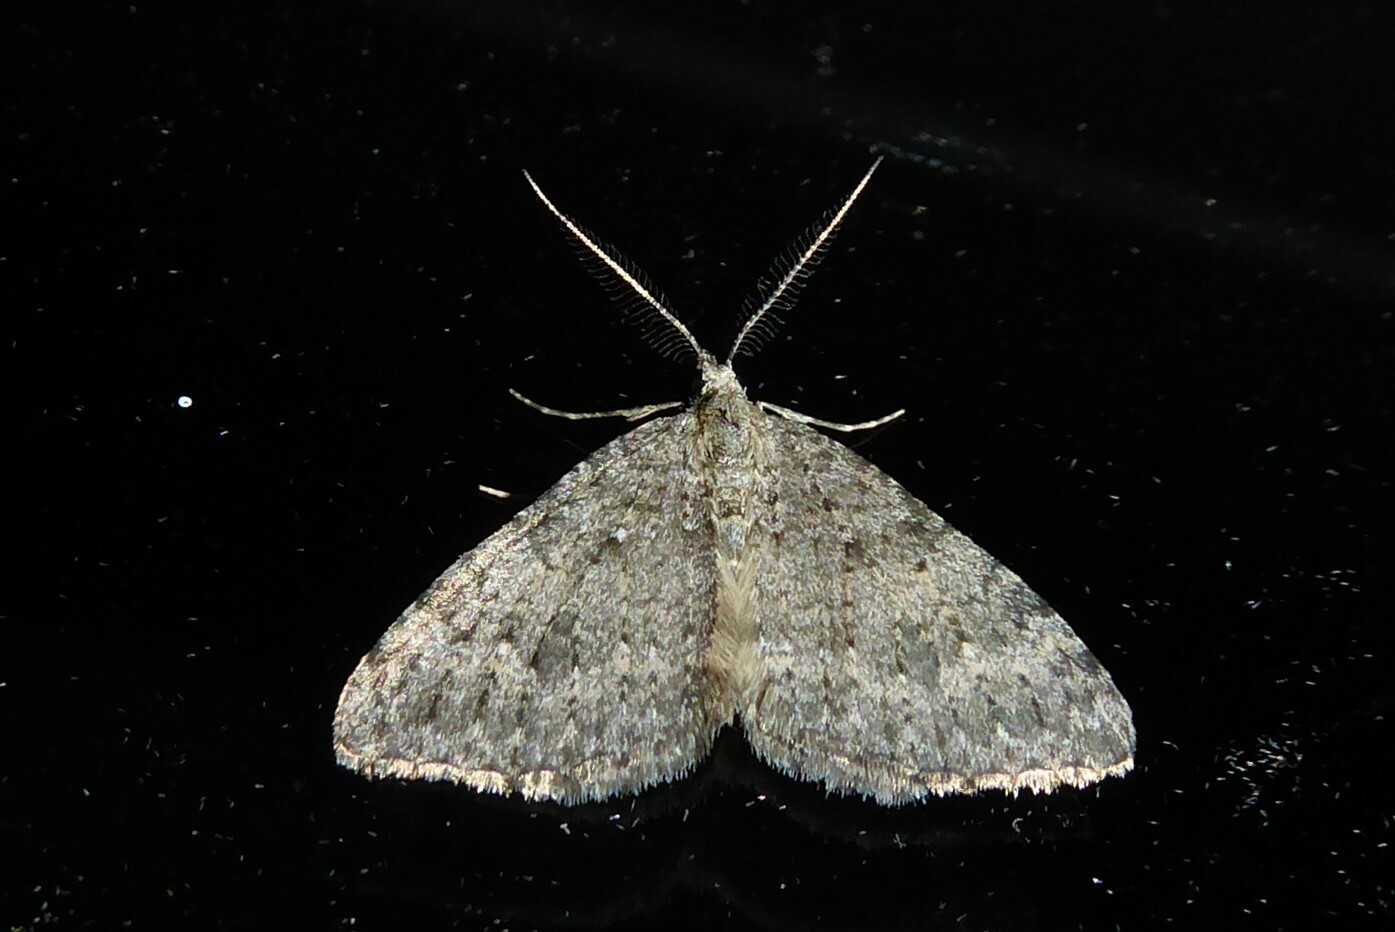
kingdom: Animalia
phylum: Arthropoda
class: Insecta
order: Lepidoptera
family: Geometridae
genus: Helastia
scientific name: Helastia corcularia
